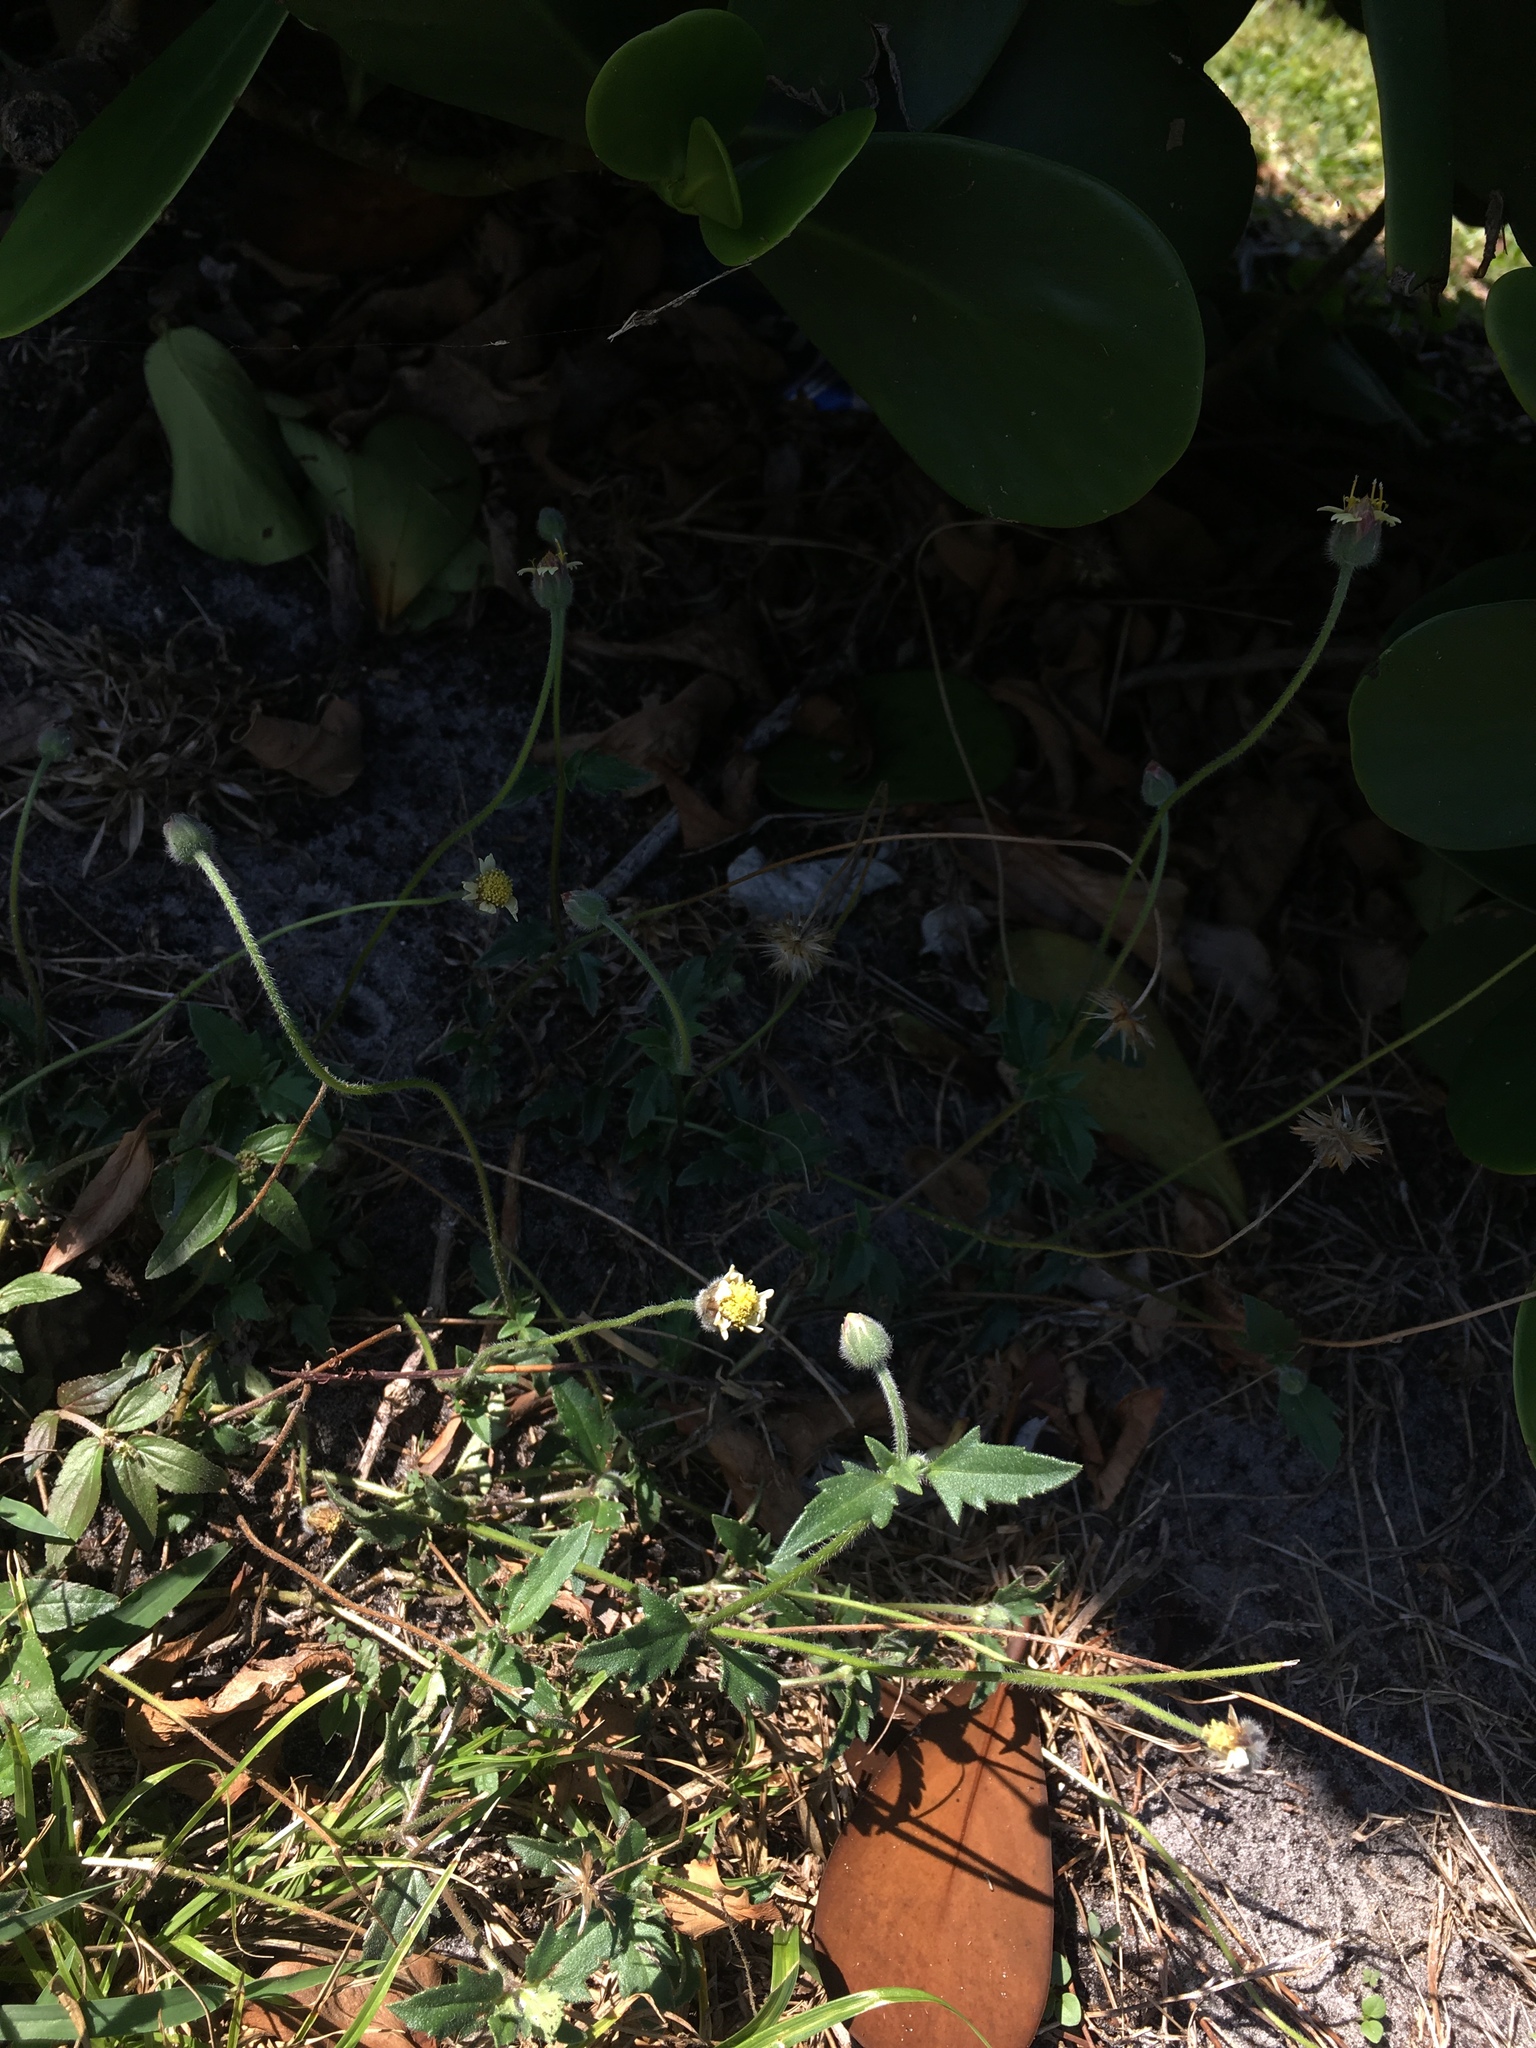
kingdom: Plantae
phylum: Tracheophyta
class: Magnoliopsida
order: Asterales
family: Asteraceae
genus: Tridax
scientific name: Tridax procumbens
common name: Coatbuttons
